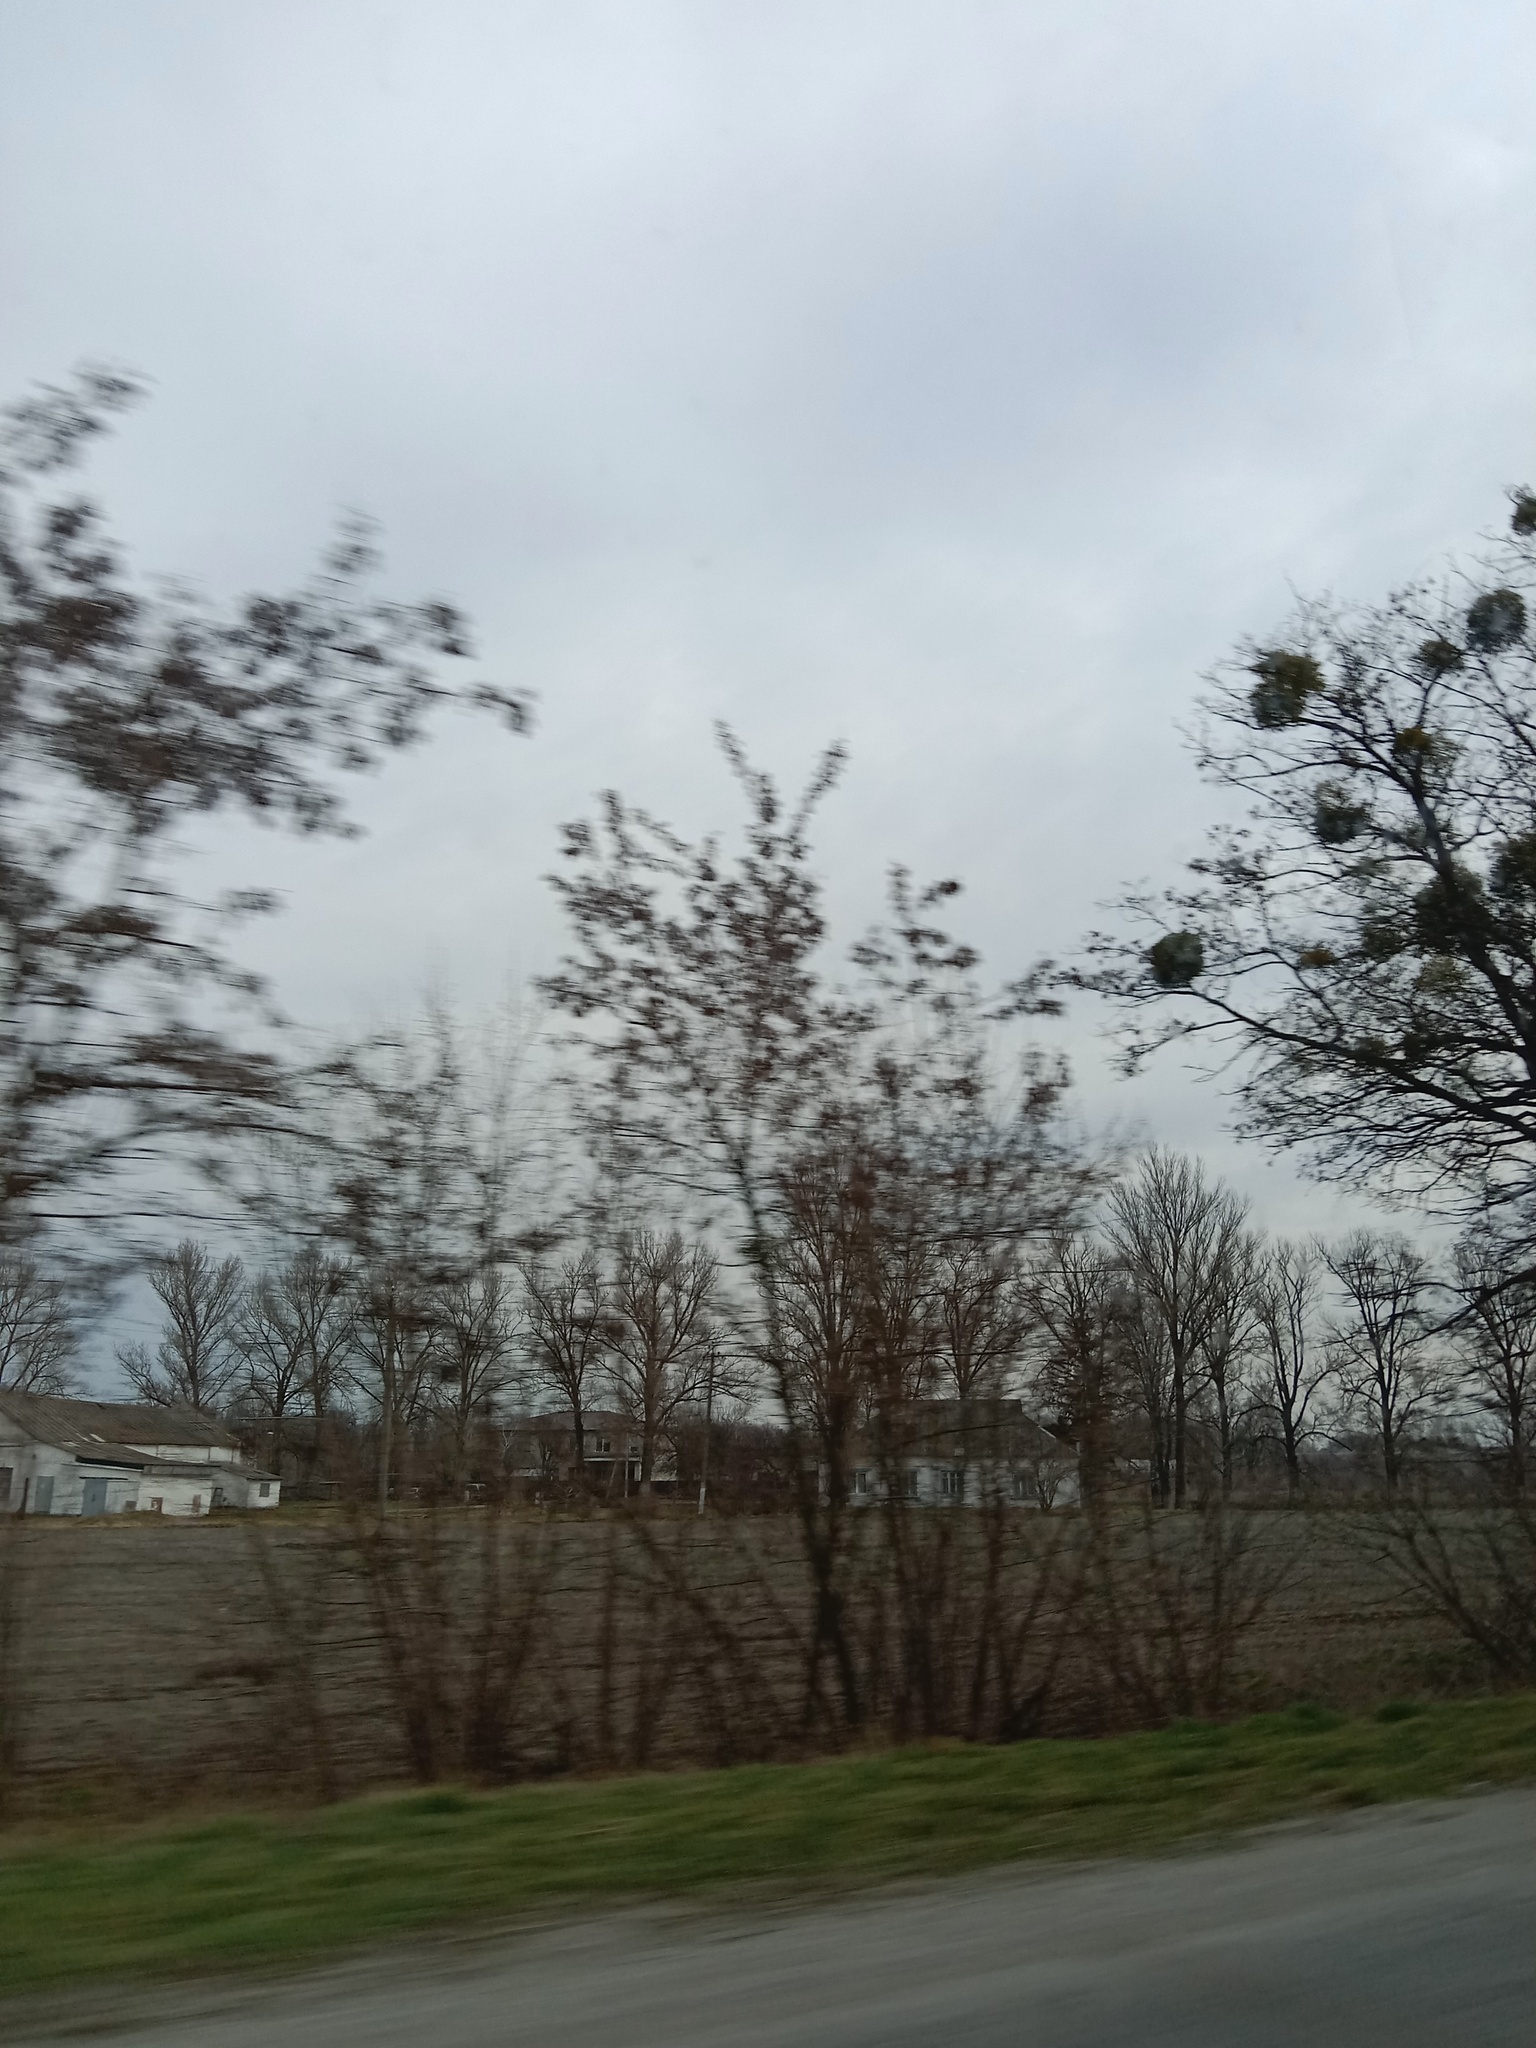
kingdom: Plantae
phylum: Tracheophyta
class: Magnoliopsida
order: Santalales
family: Viscaceae
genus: Viscum
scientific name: Viscum album
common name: Mistletoe
